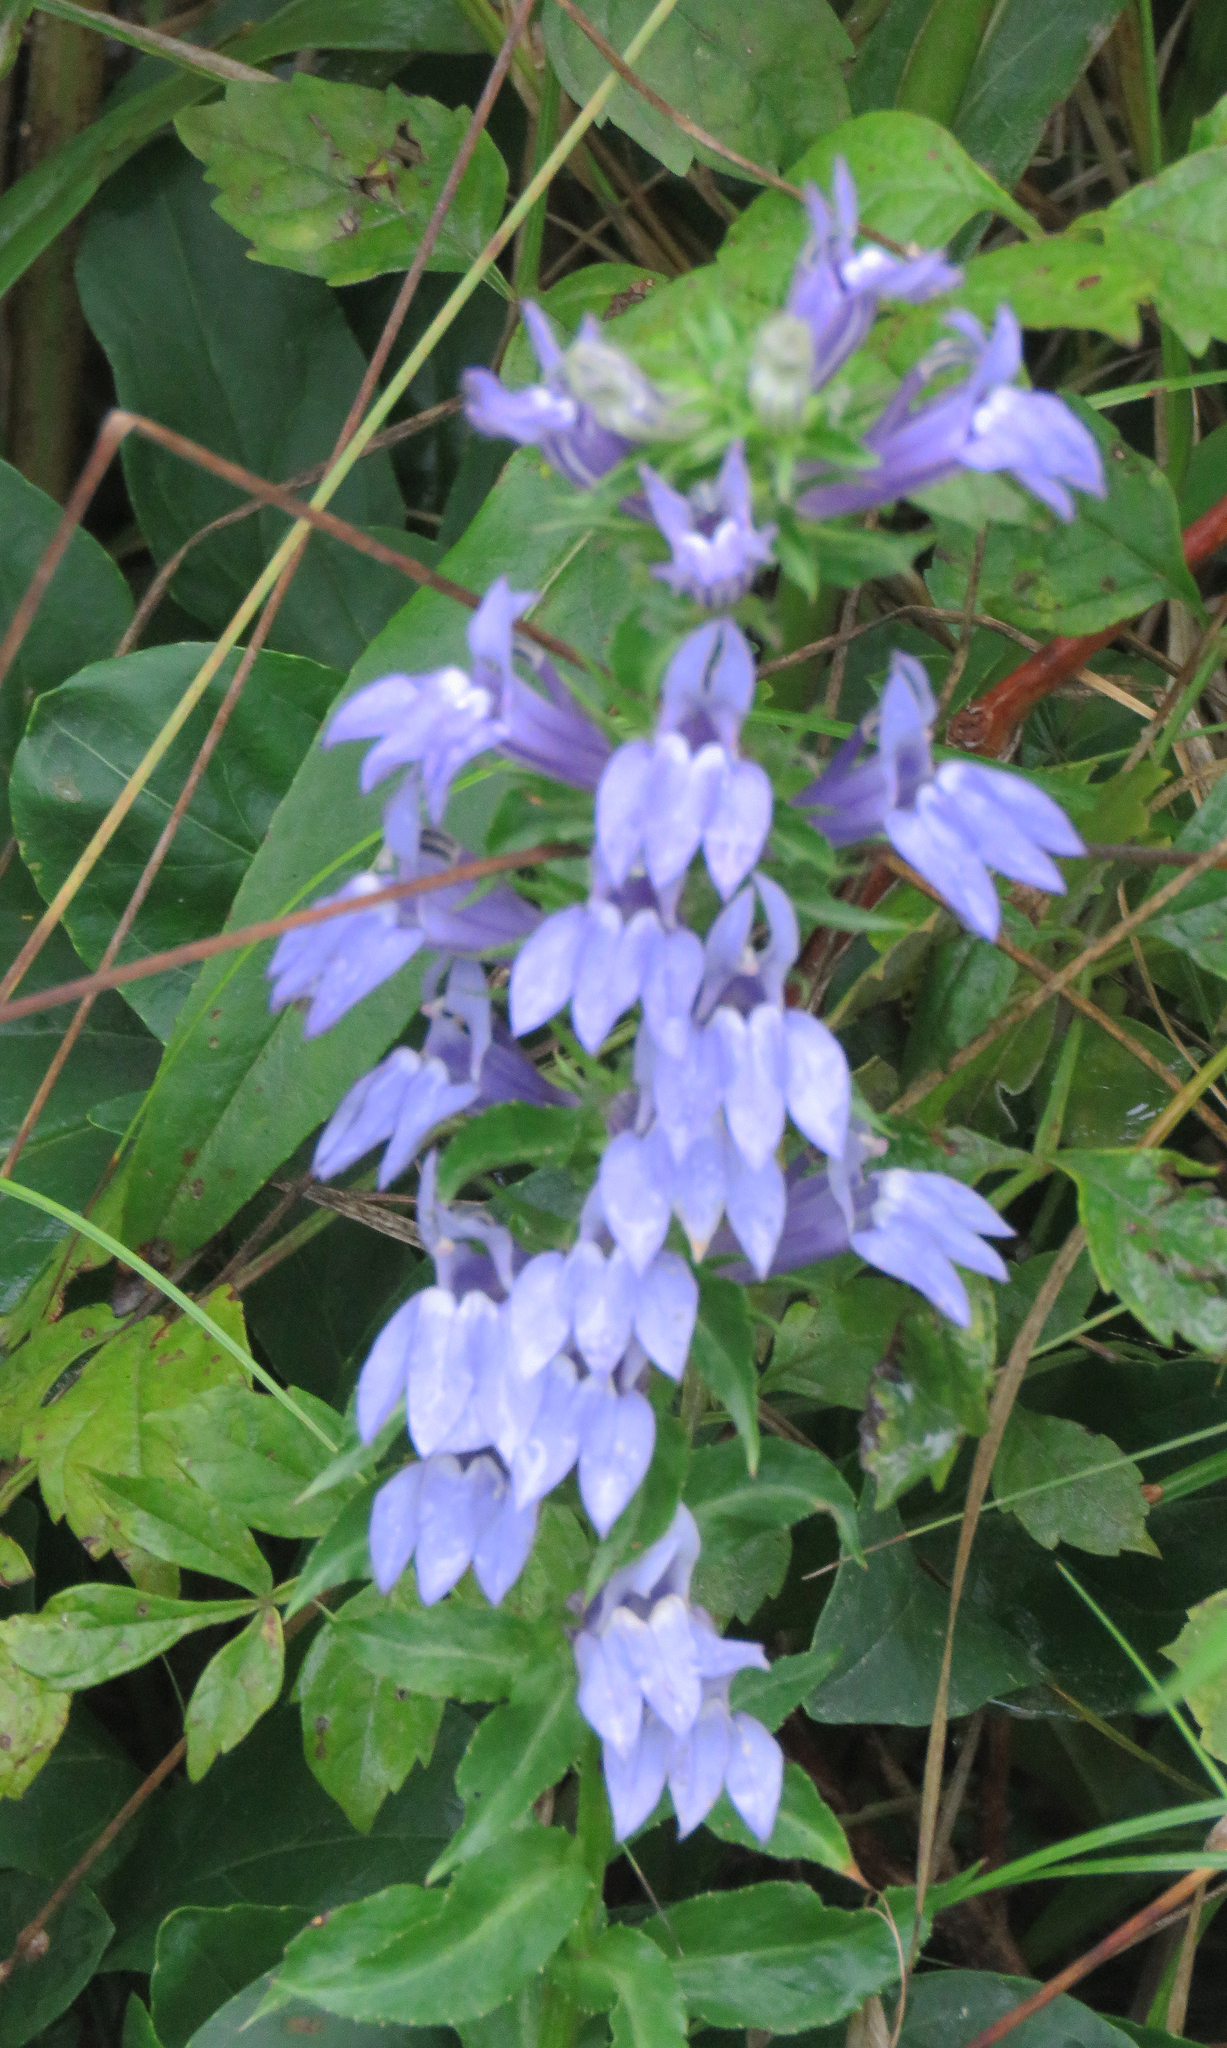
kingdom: Plantae
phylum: Tracheophyta
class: Magnoliopsida
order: Asterales
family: Campanulaceae
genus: Lobelia
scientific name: Lobelia siphilitica
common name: Great lobelia
